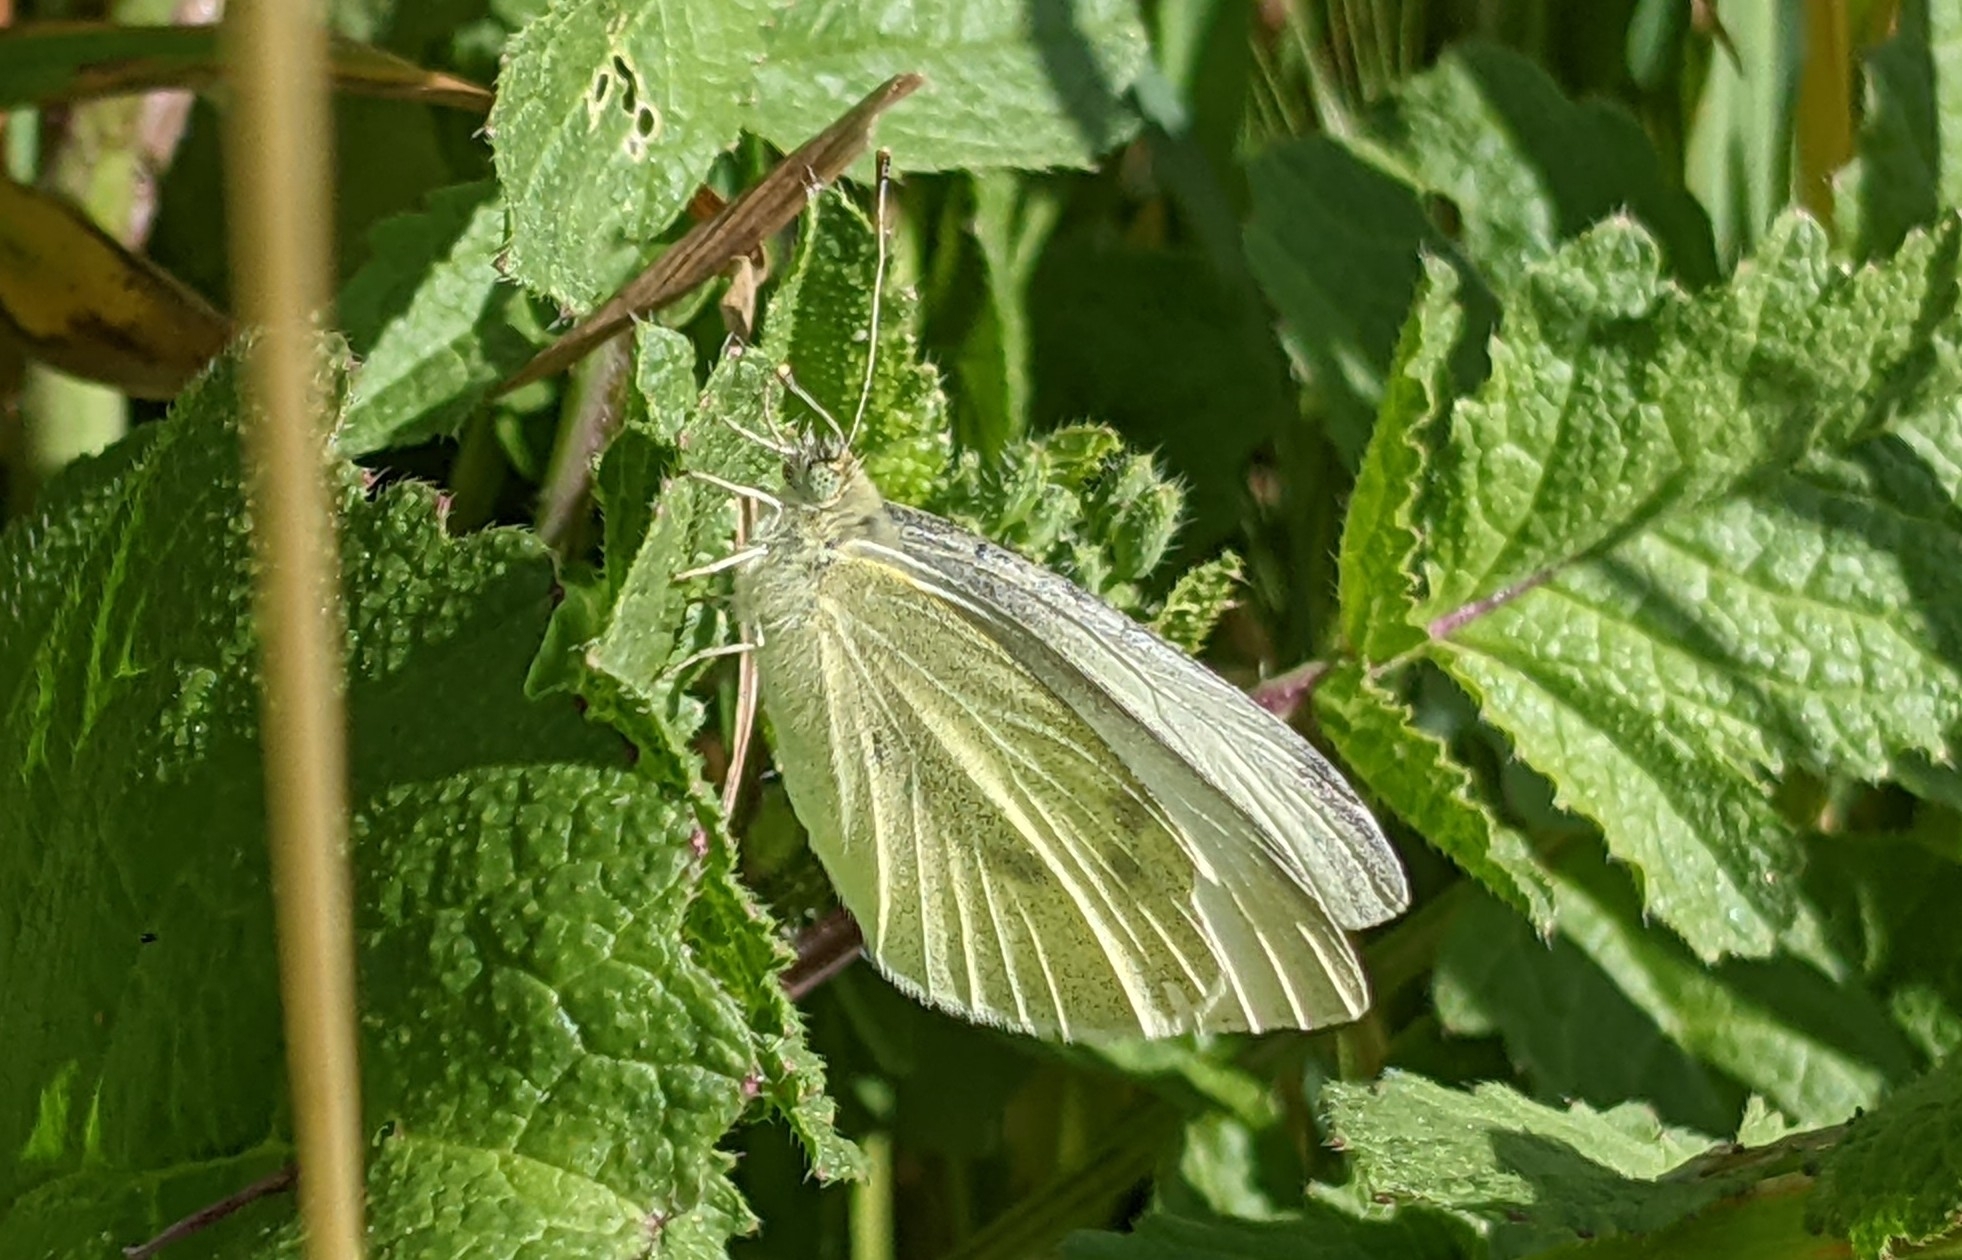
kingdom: Animalia
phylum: Arthropoda
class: Insecta
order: Lepidoptera
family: Pieridae
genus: Pieris
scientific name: Pieris rapae
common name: Small white
